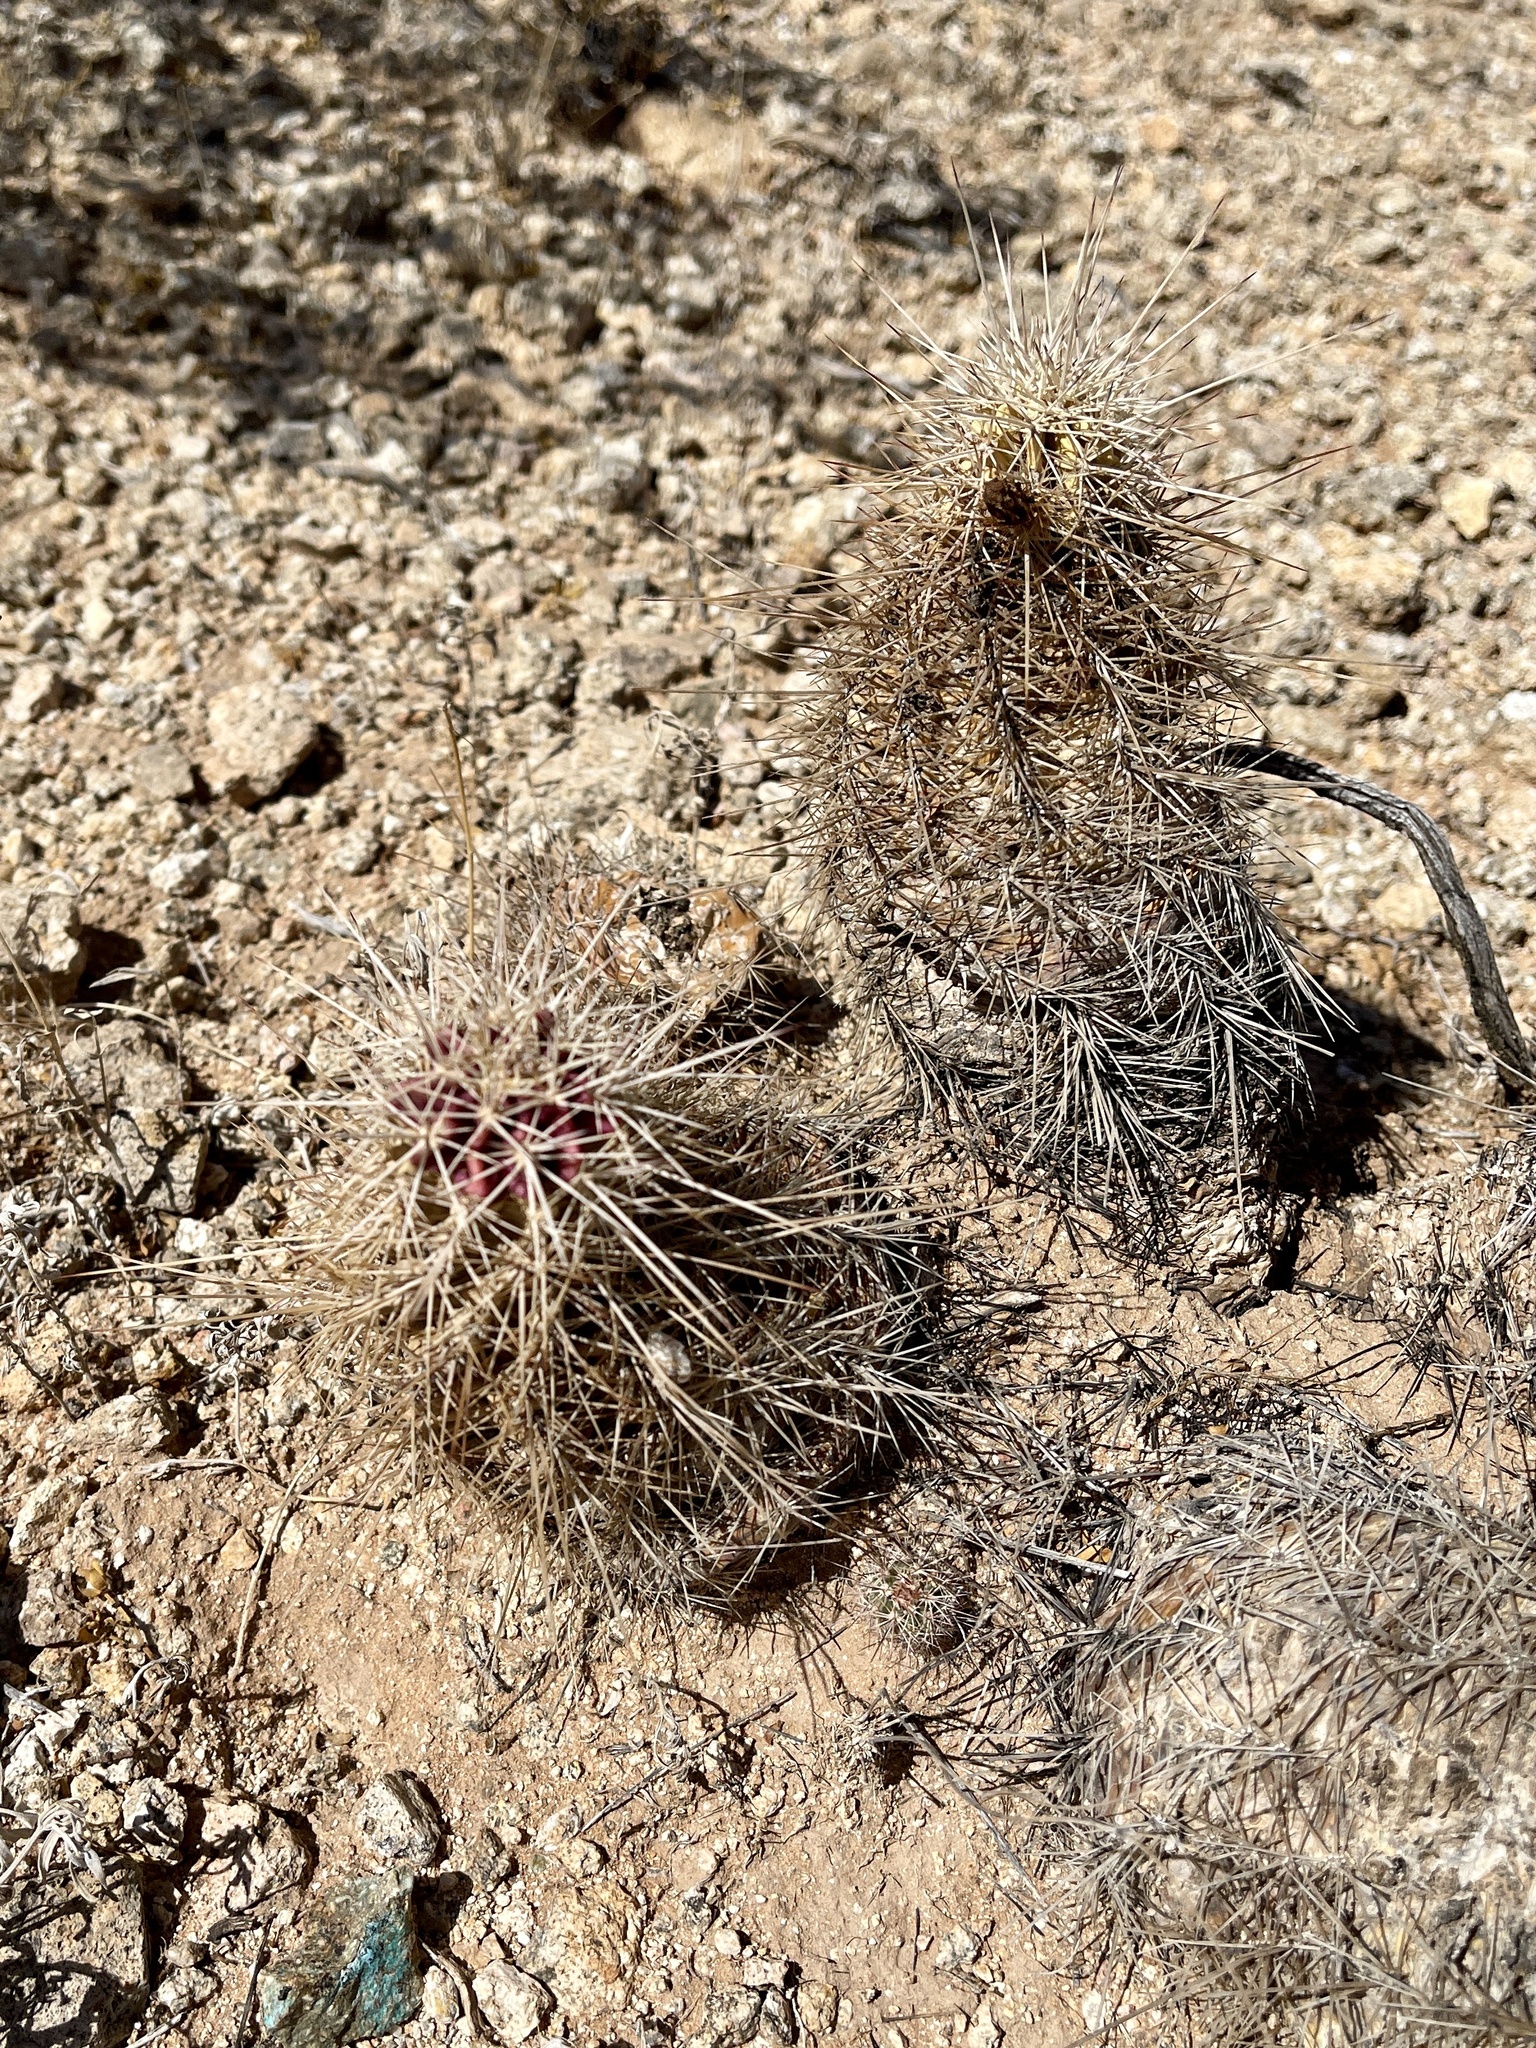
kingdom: Plantae
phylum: Tracheophyta
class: Magnoliopsida
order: Caryophyllales
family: Cactaceae
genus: Echinocereus
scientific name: Echinocereus coccineus
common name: Scarlet hedgehog cactus
